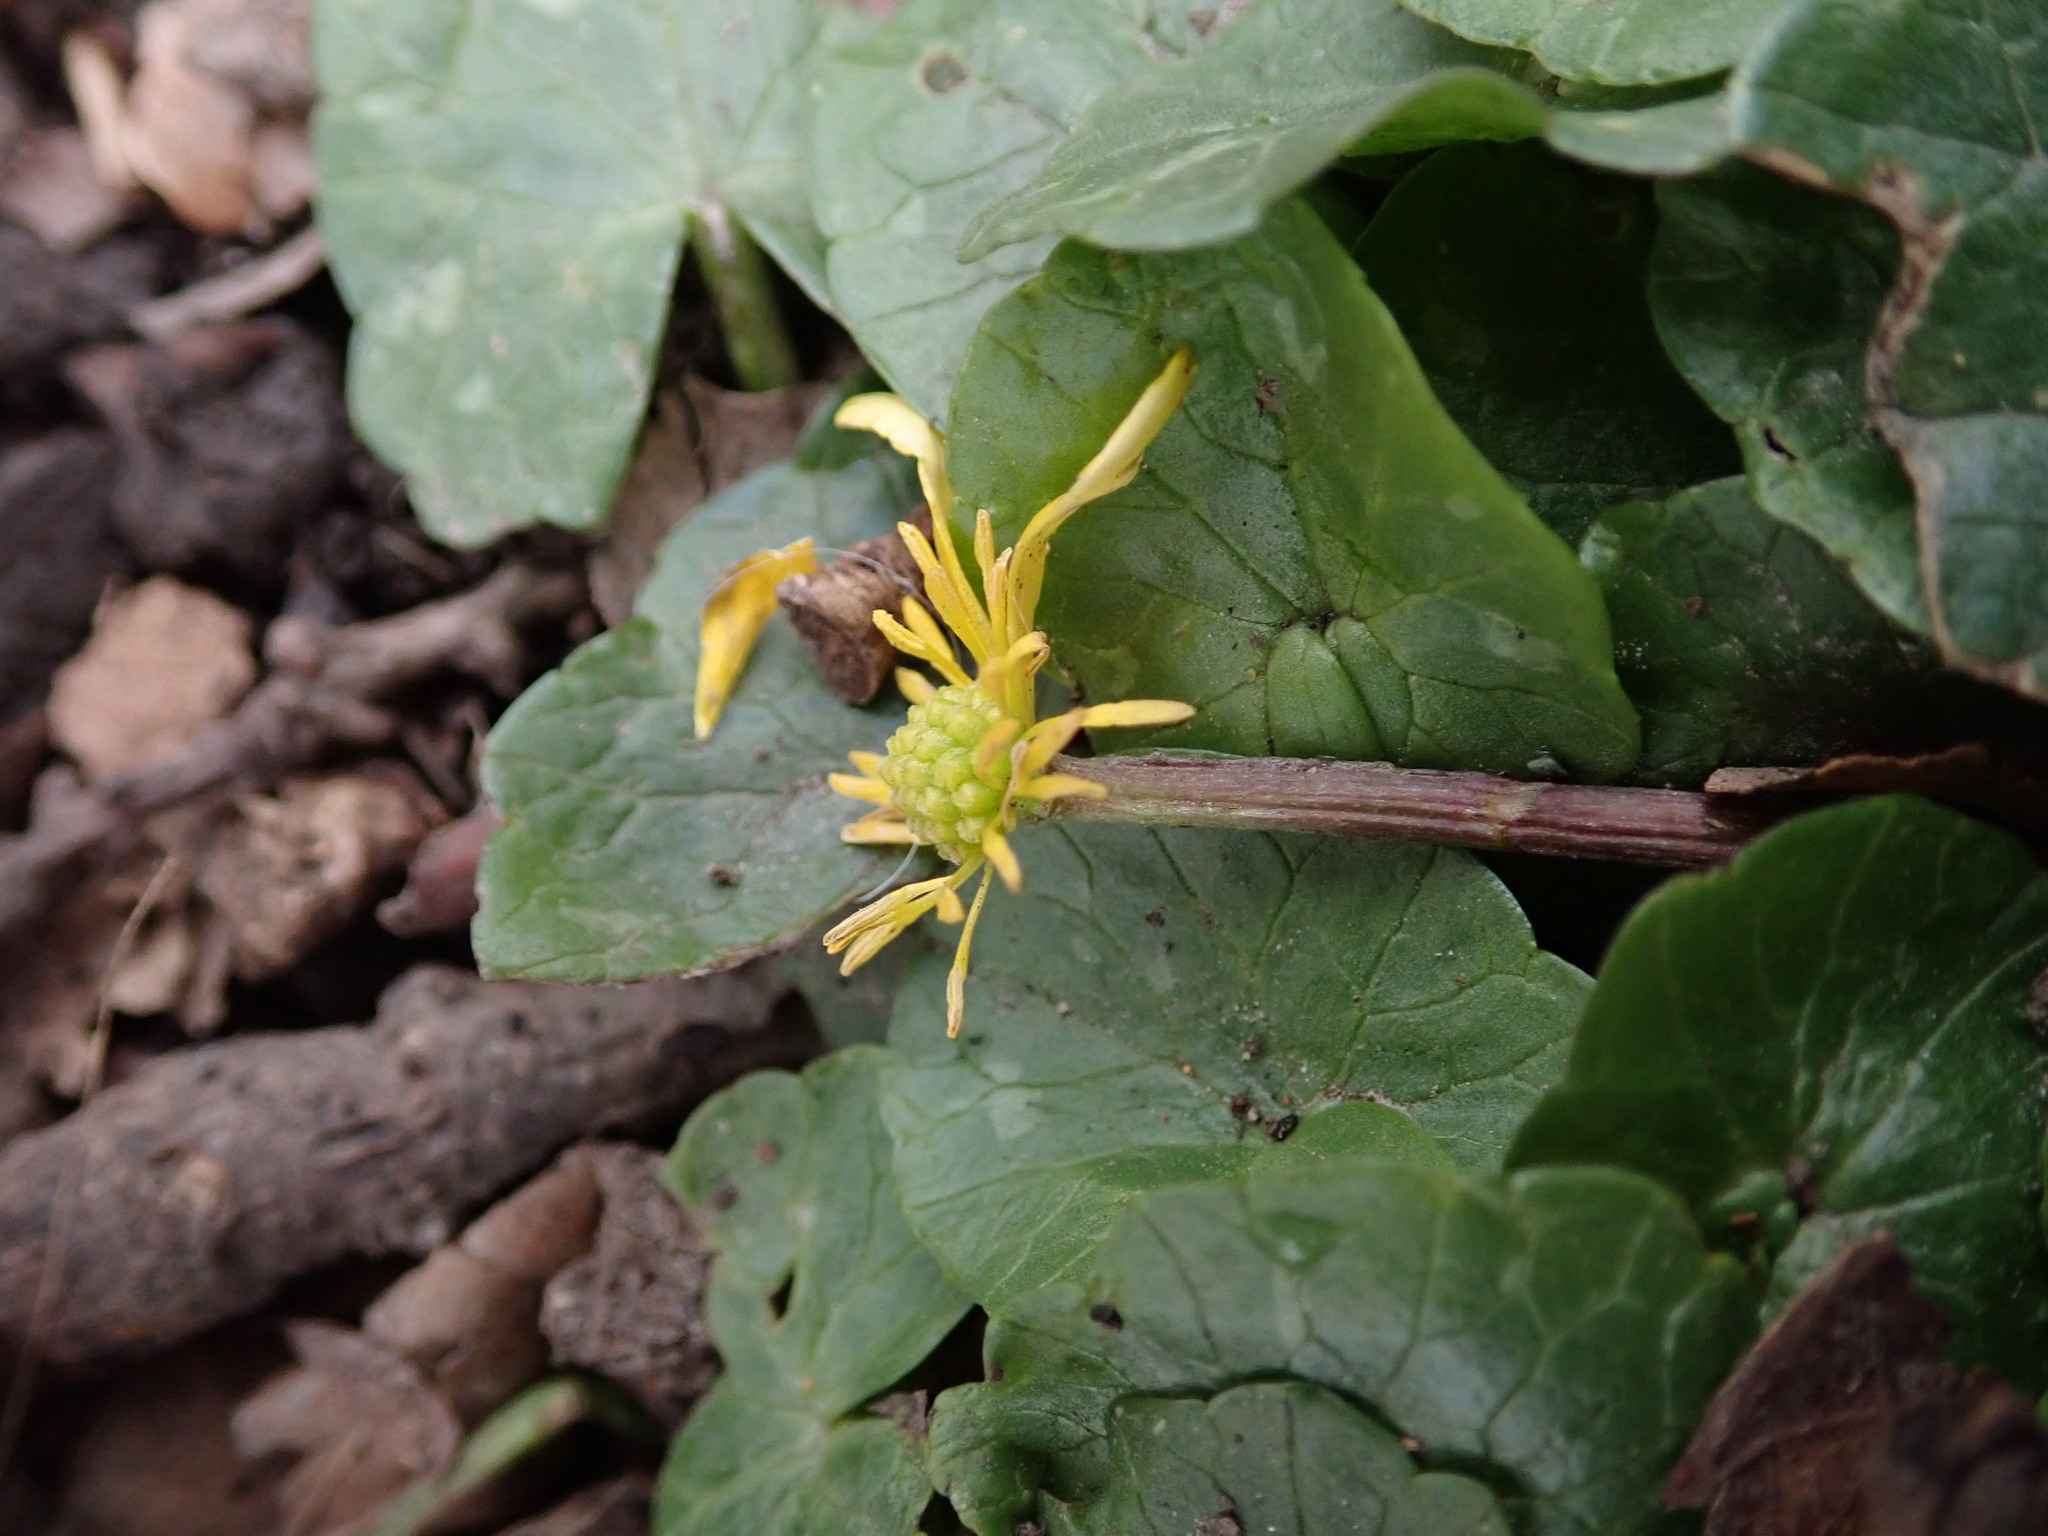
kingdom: Plantae
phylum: Tracheophyta
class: Magnoliopsida
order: Ranunculales
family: Ranunculaceae
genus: Ficaria
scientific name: Ficaria ambigua
